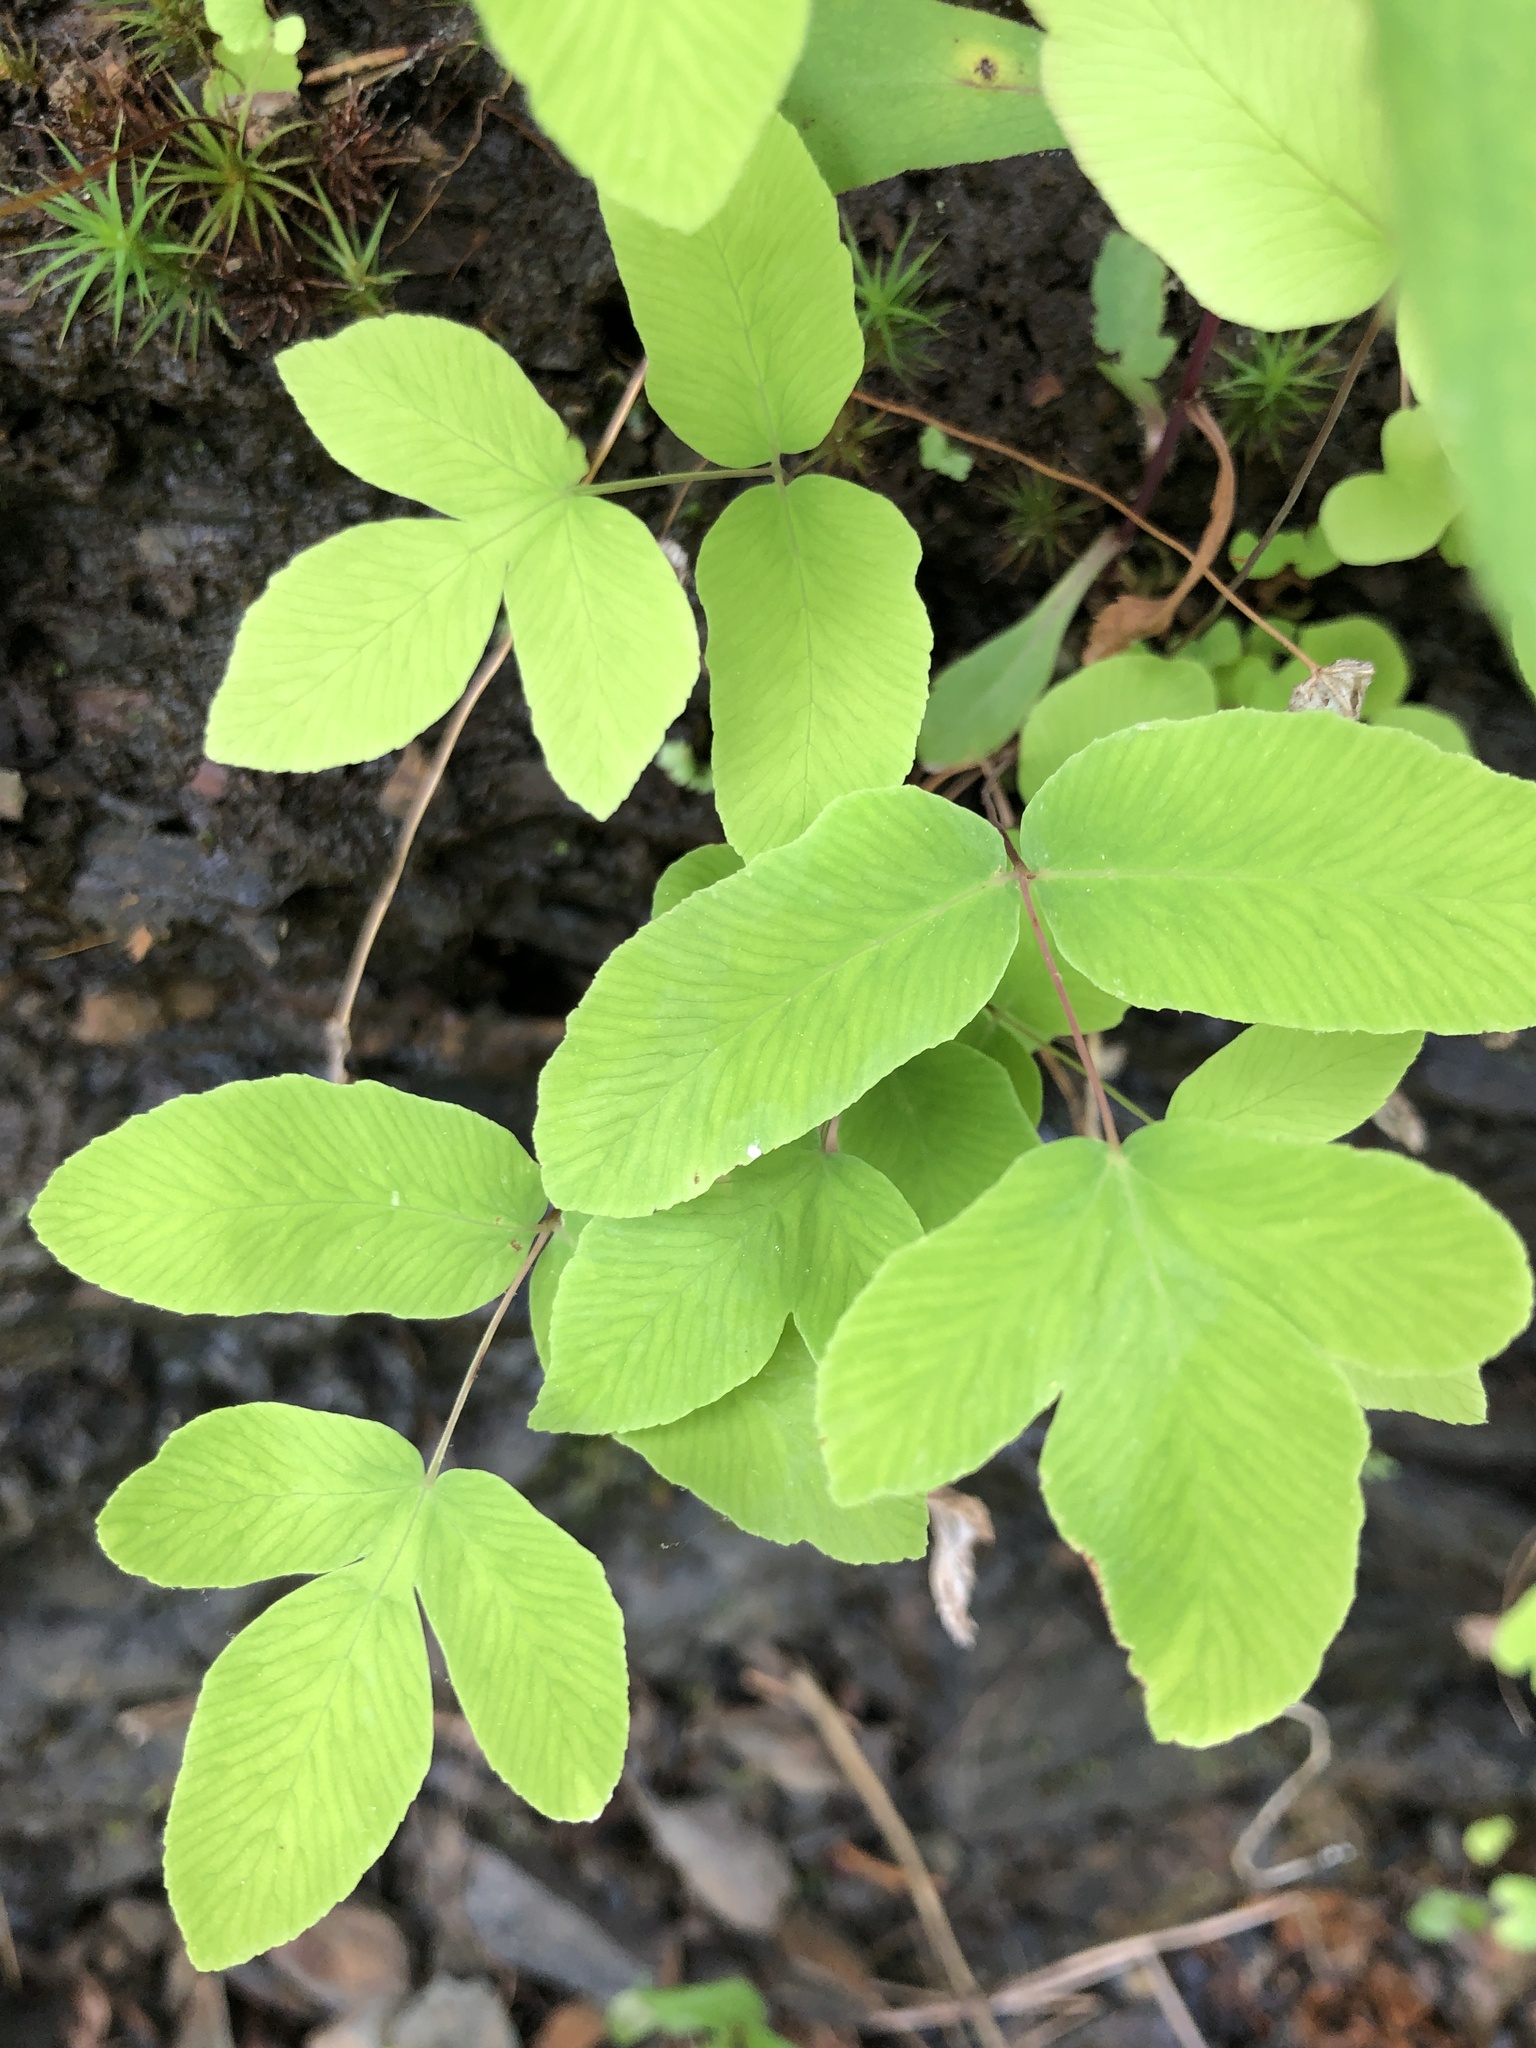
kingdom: Plantae
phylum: Tracheophyta
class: Polypodiopsida
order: Osmundales
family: Osmundaceae
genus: Osmunda
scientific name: Osmunda spectabilis
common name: American royal fern
